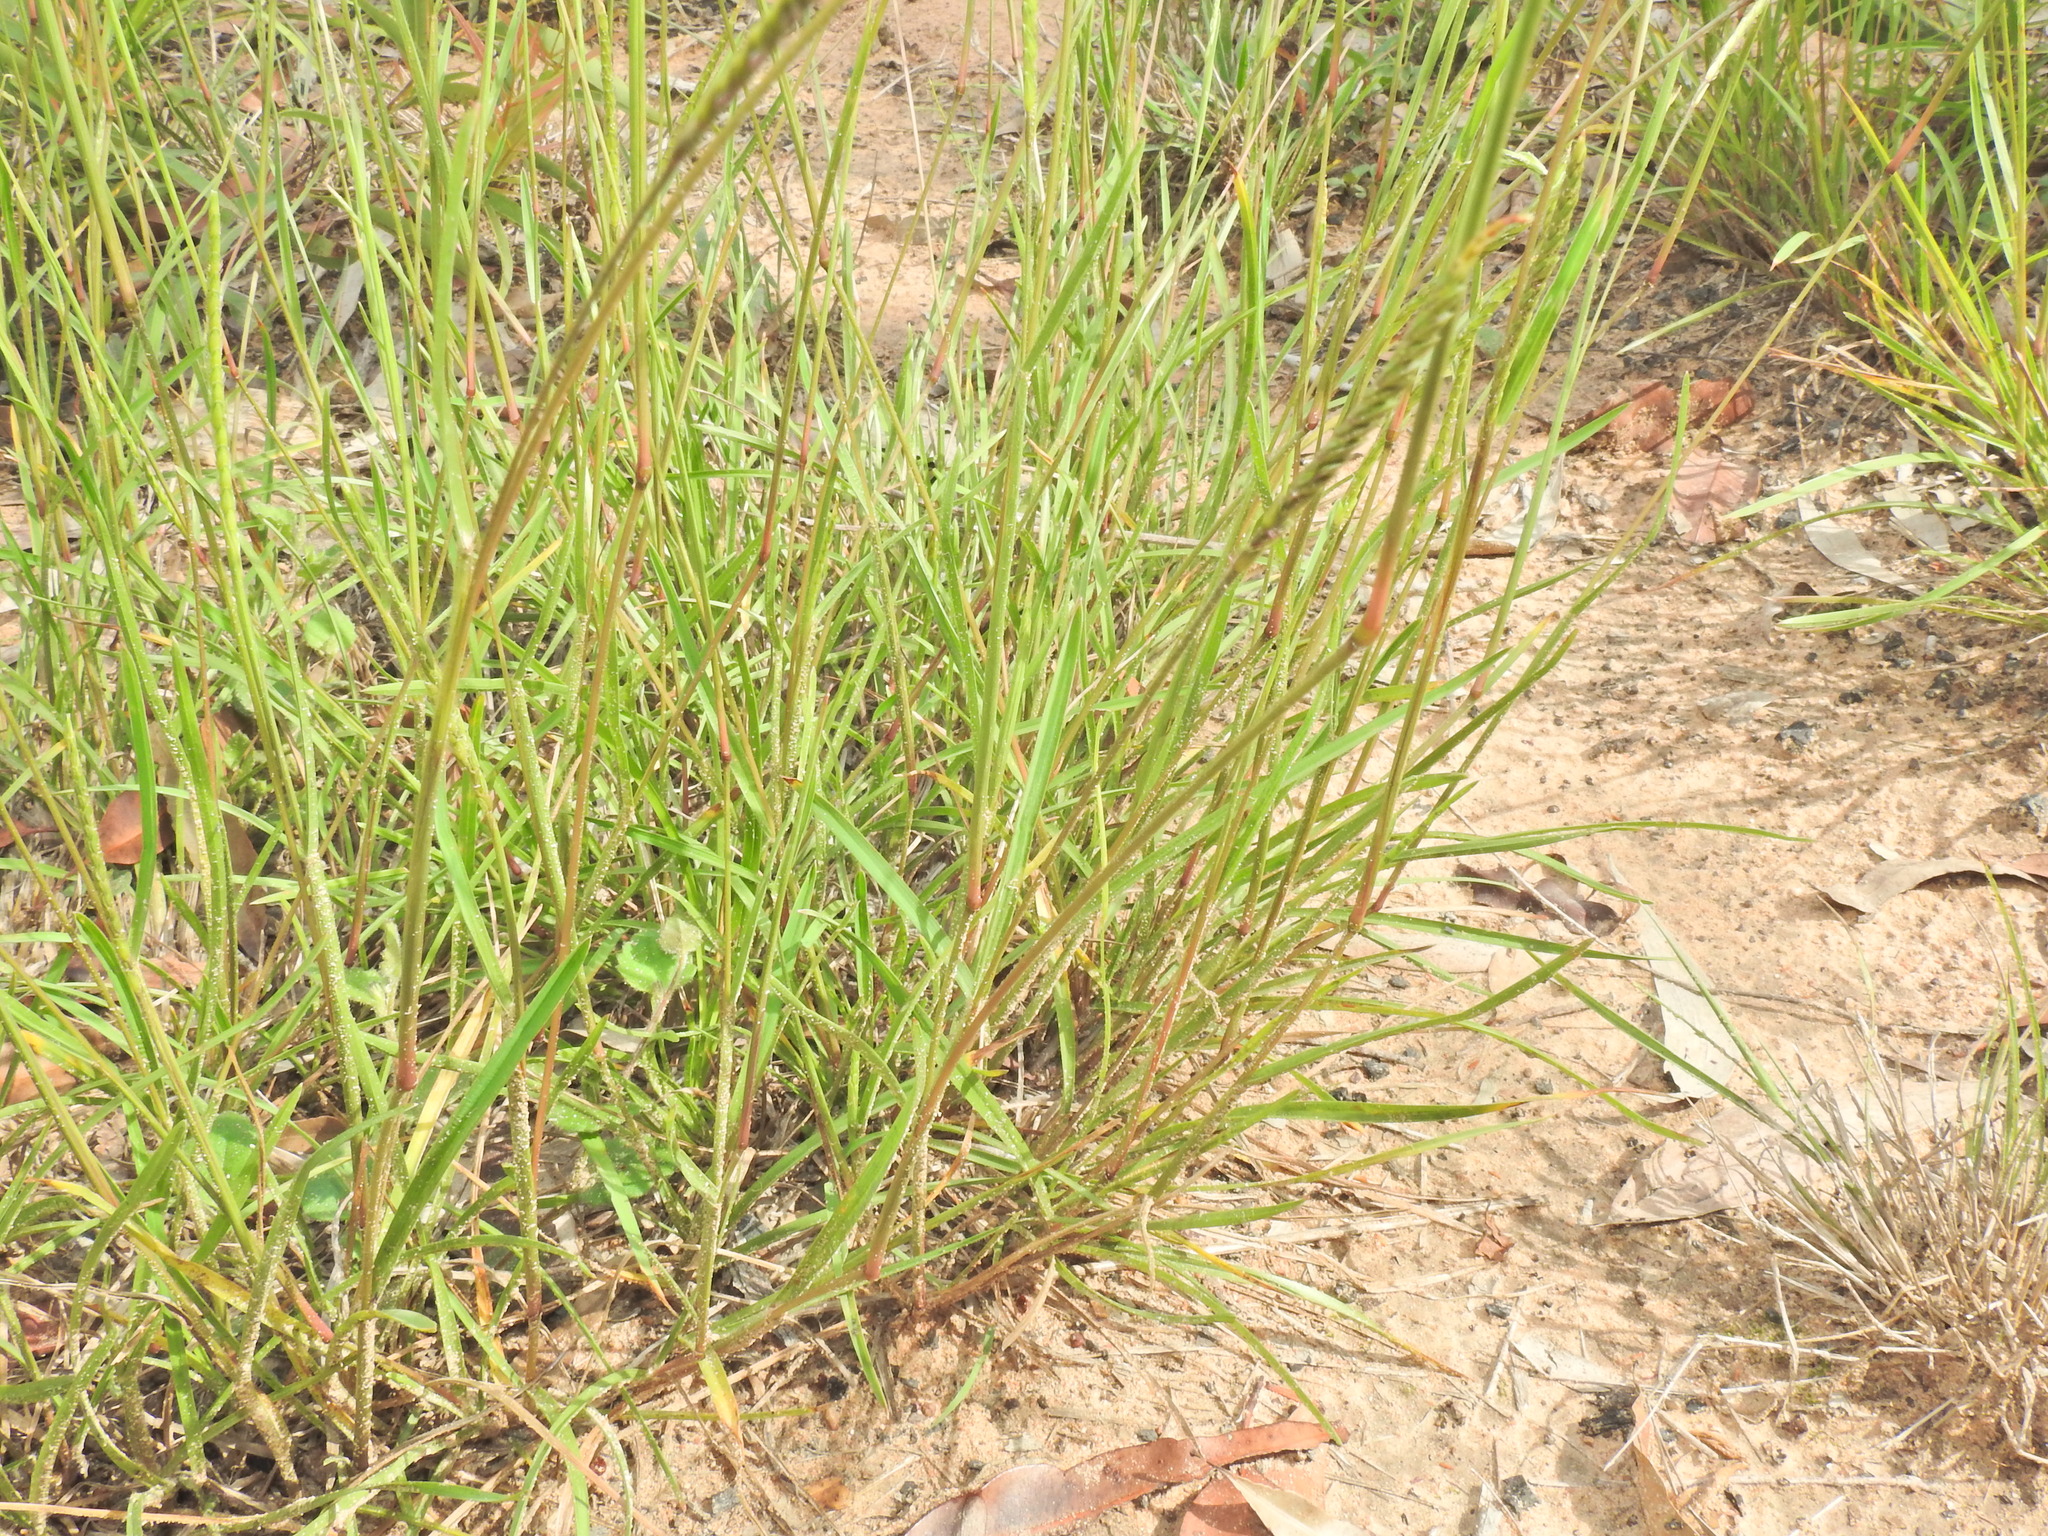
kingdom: Plantae
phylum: Tracheophyta
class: Liliopsida
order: Poales
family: Poaceae
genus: Eremochloa
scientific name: Eremochloa bimaculata
